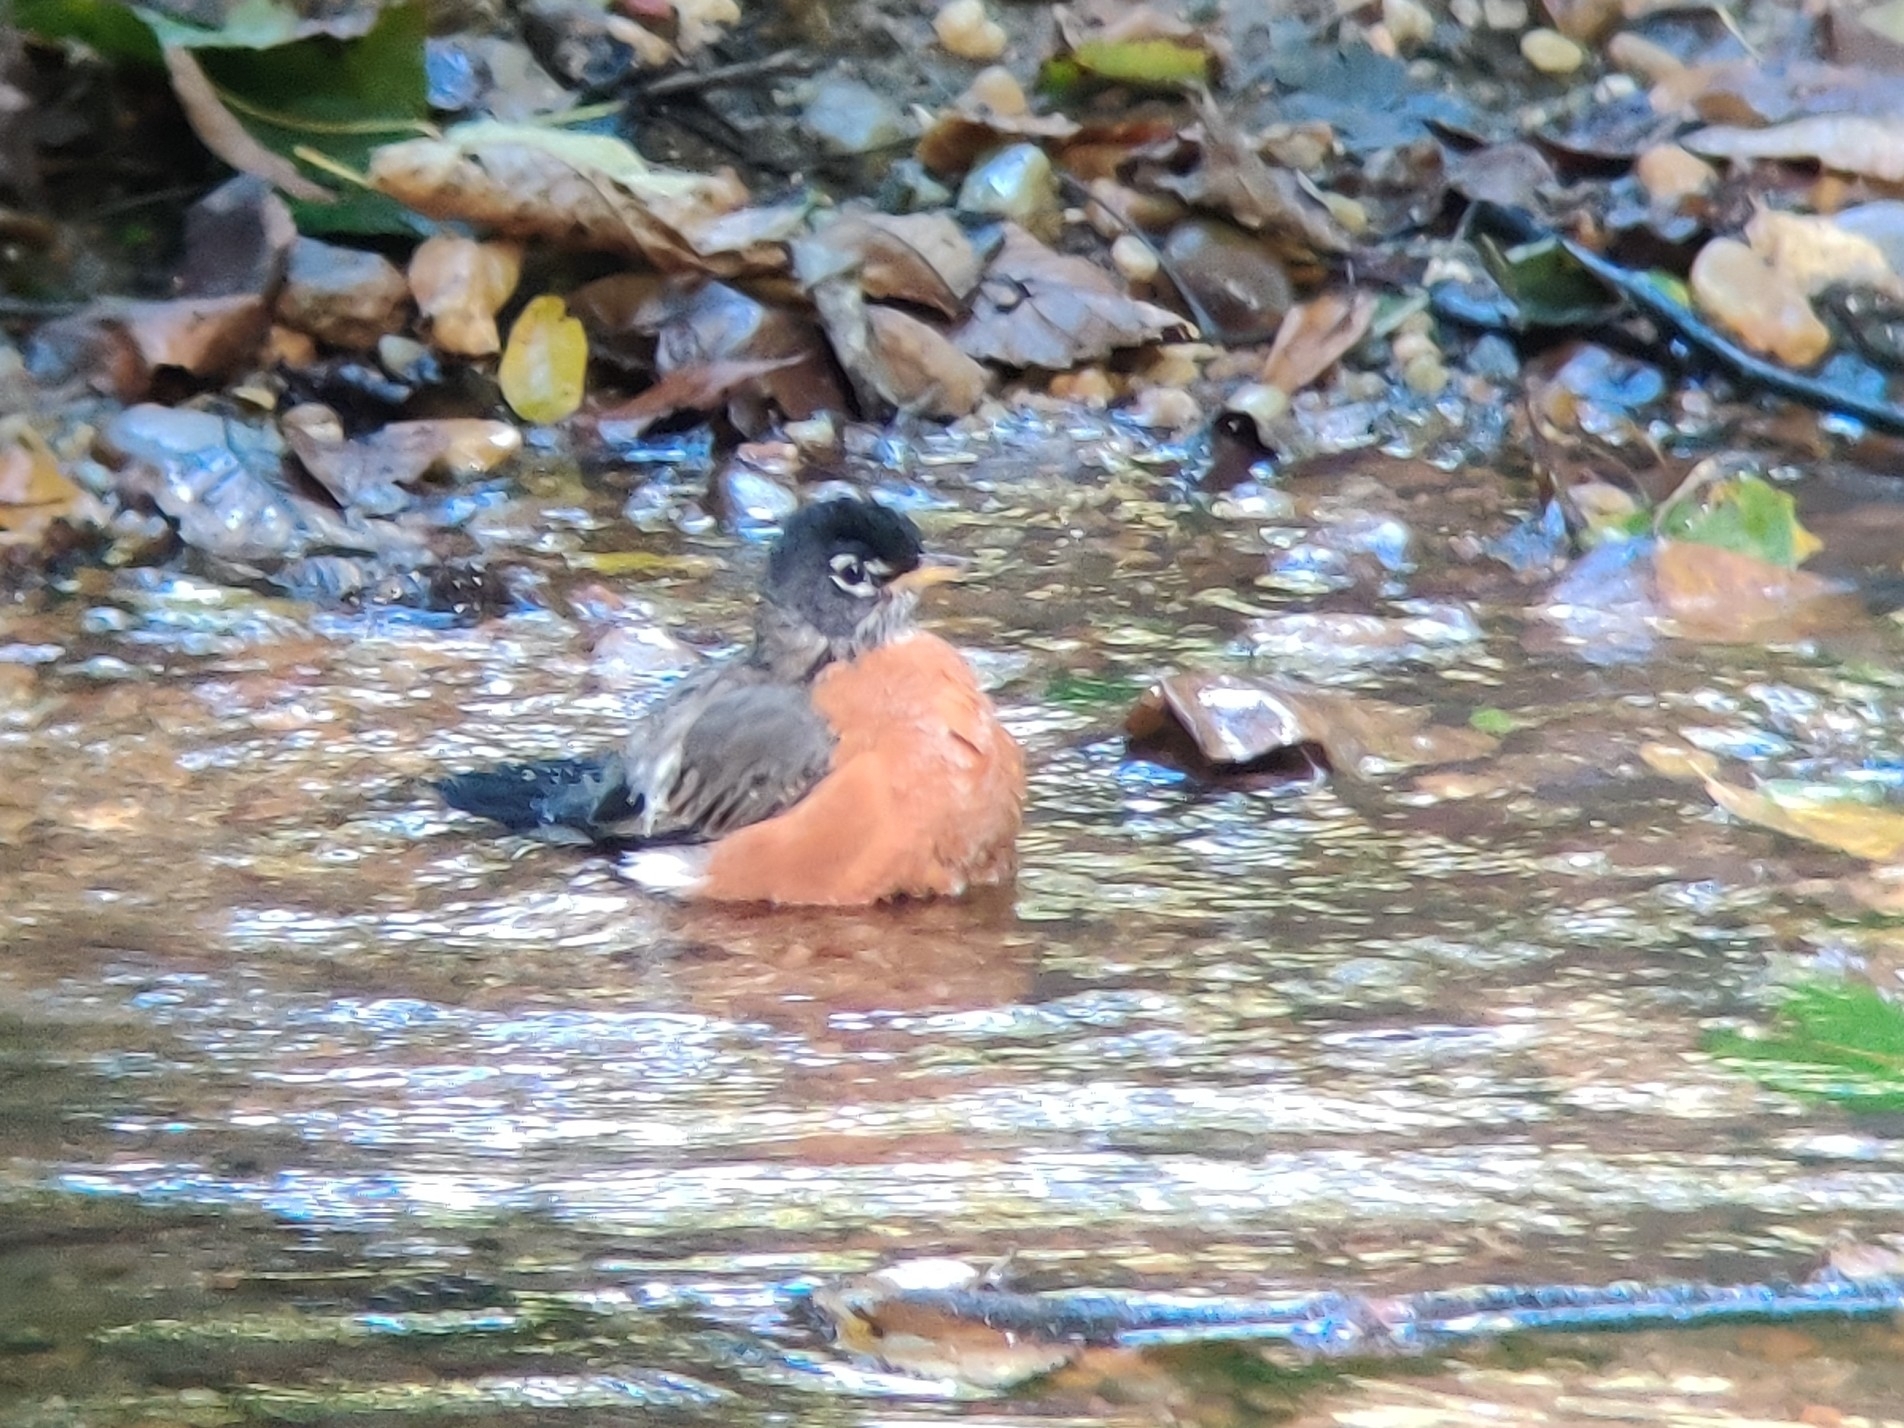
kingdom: Animalia
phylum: Chordata
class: Aves
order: Passeriformes
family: Turdidae
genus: Turdus
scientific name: Turdus migratorius
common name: American robin
